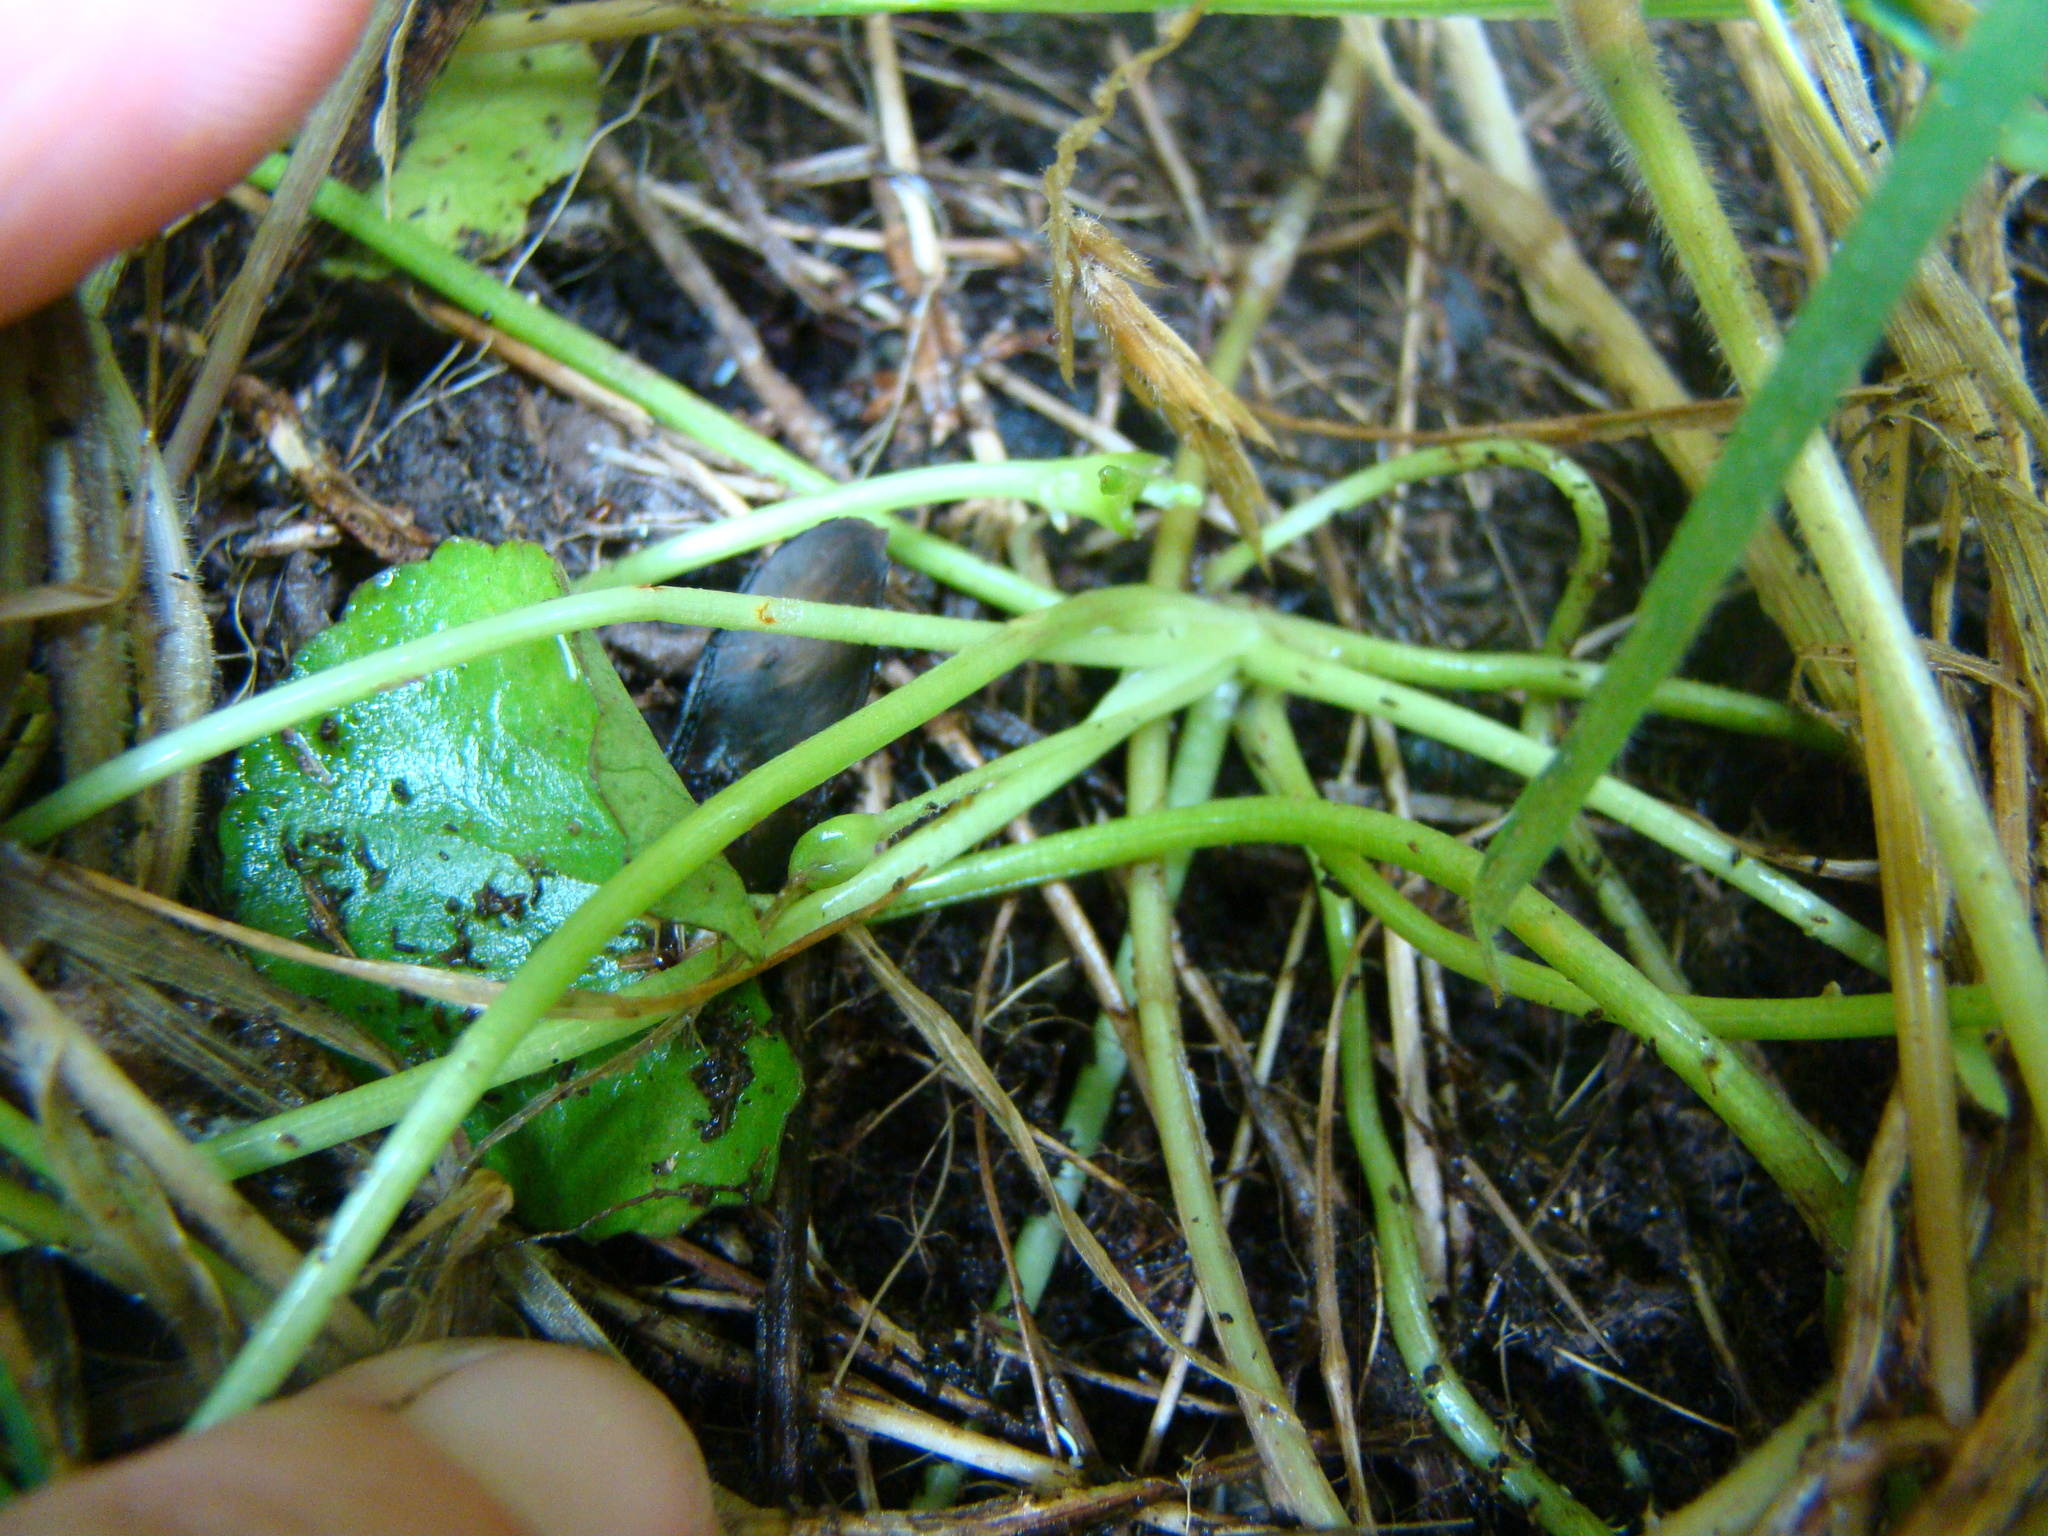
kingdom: Plantae
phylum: Tracheophyta
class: Magnoliopsida
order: Apiales
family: Apiaceae
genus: Centella
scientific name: Centella uniflora
